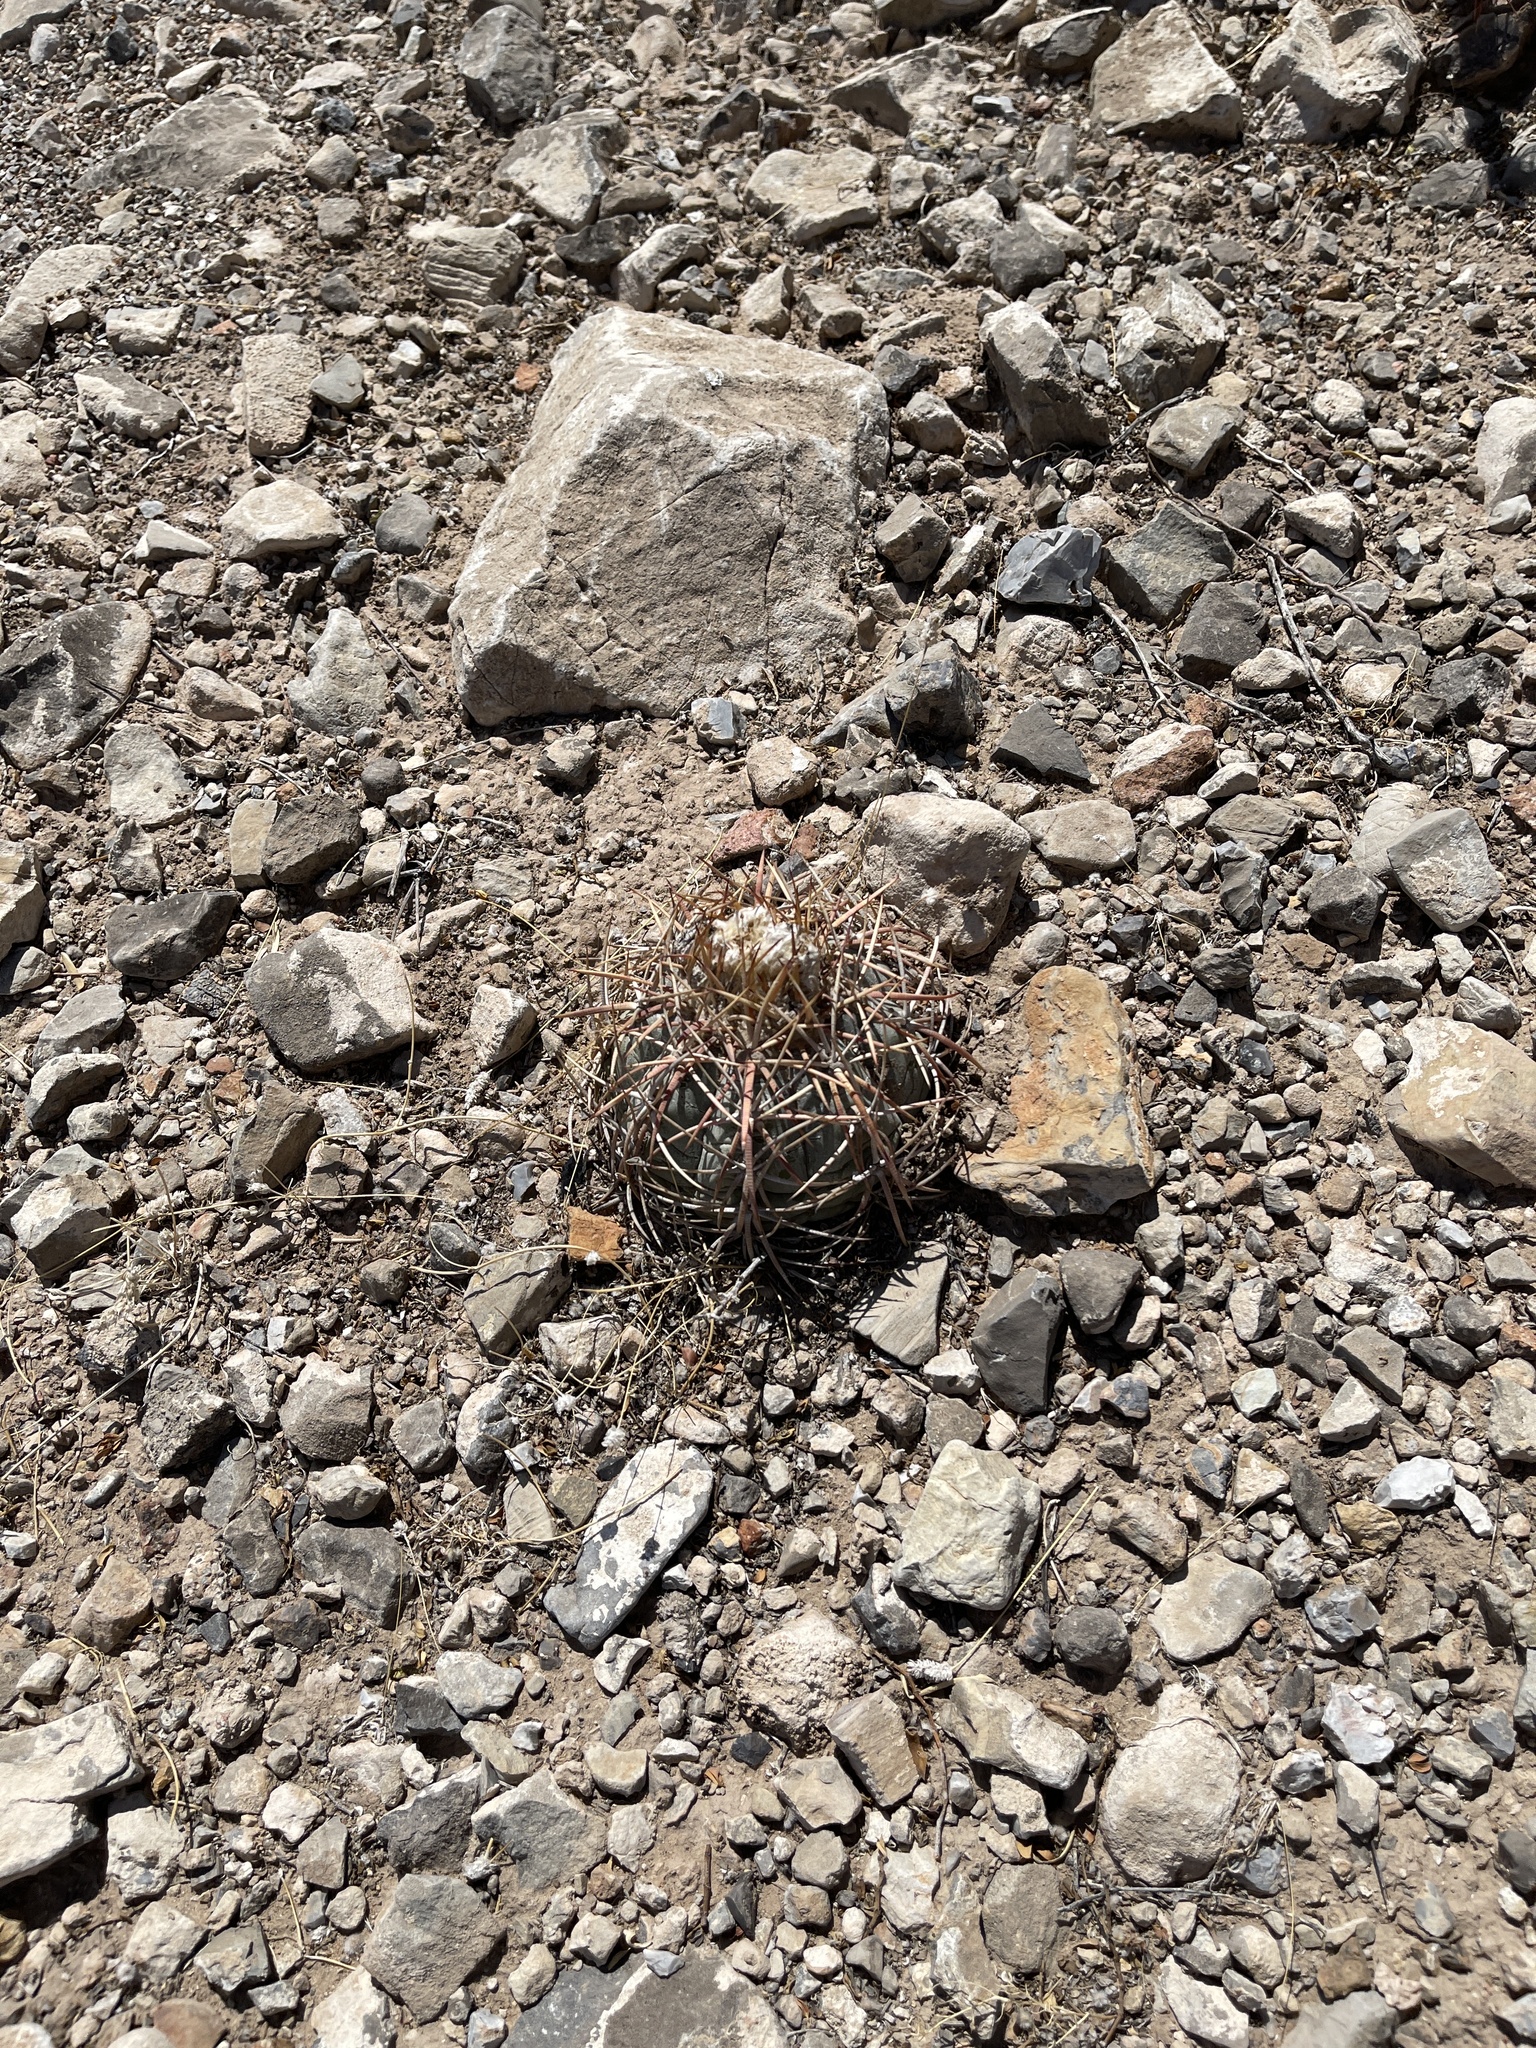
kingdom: Plantae
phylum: Tracheophyta
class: Magnoliopsida
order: Caryophyllales
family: Cactaceae
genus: Echinocactus
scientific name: Echinocactus horizonthalonius
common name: Devilshead
